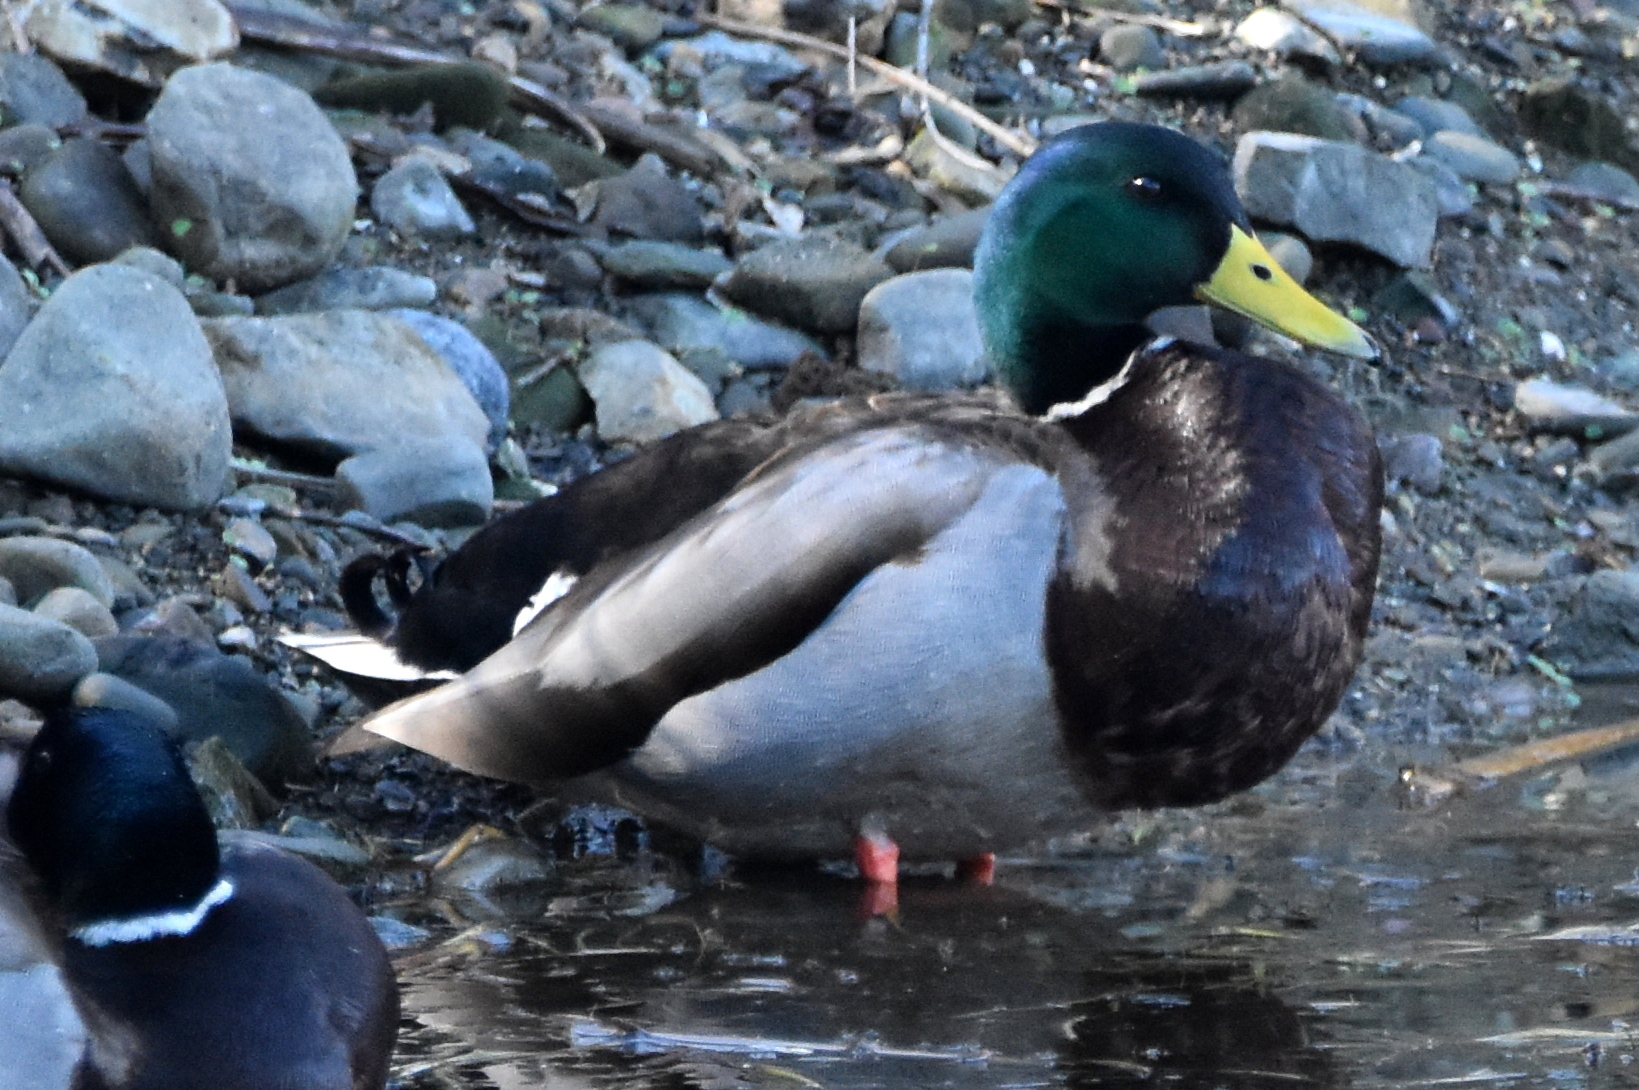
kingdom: Animalia
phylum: Chordata
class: Aves
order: Anseriformes
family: Anatidae
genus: Anas
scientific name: Anas platyrhynchos
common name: Mallard
